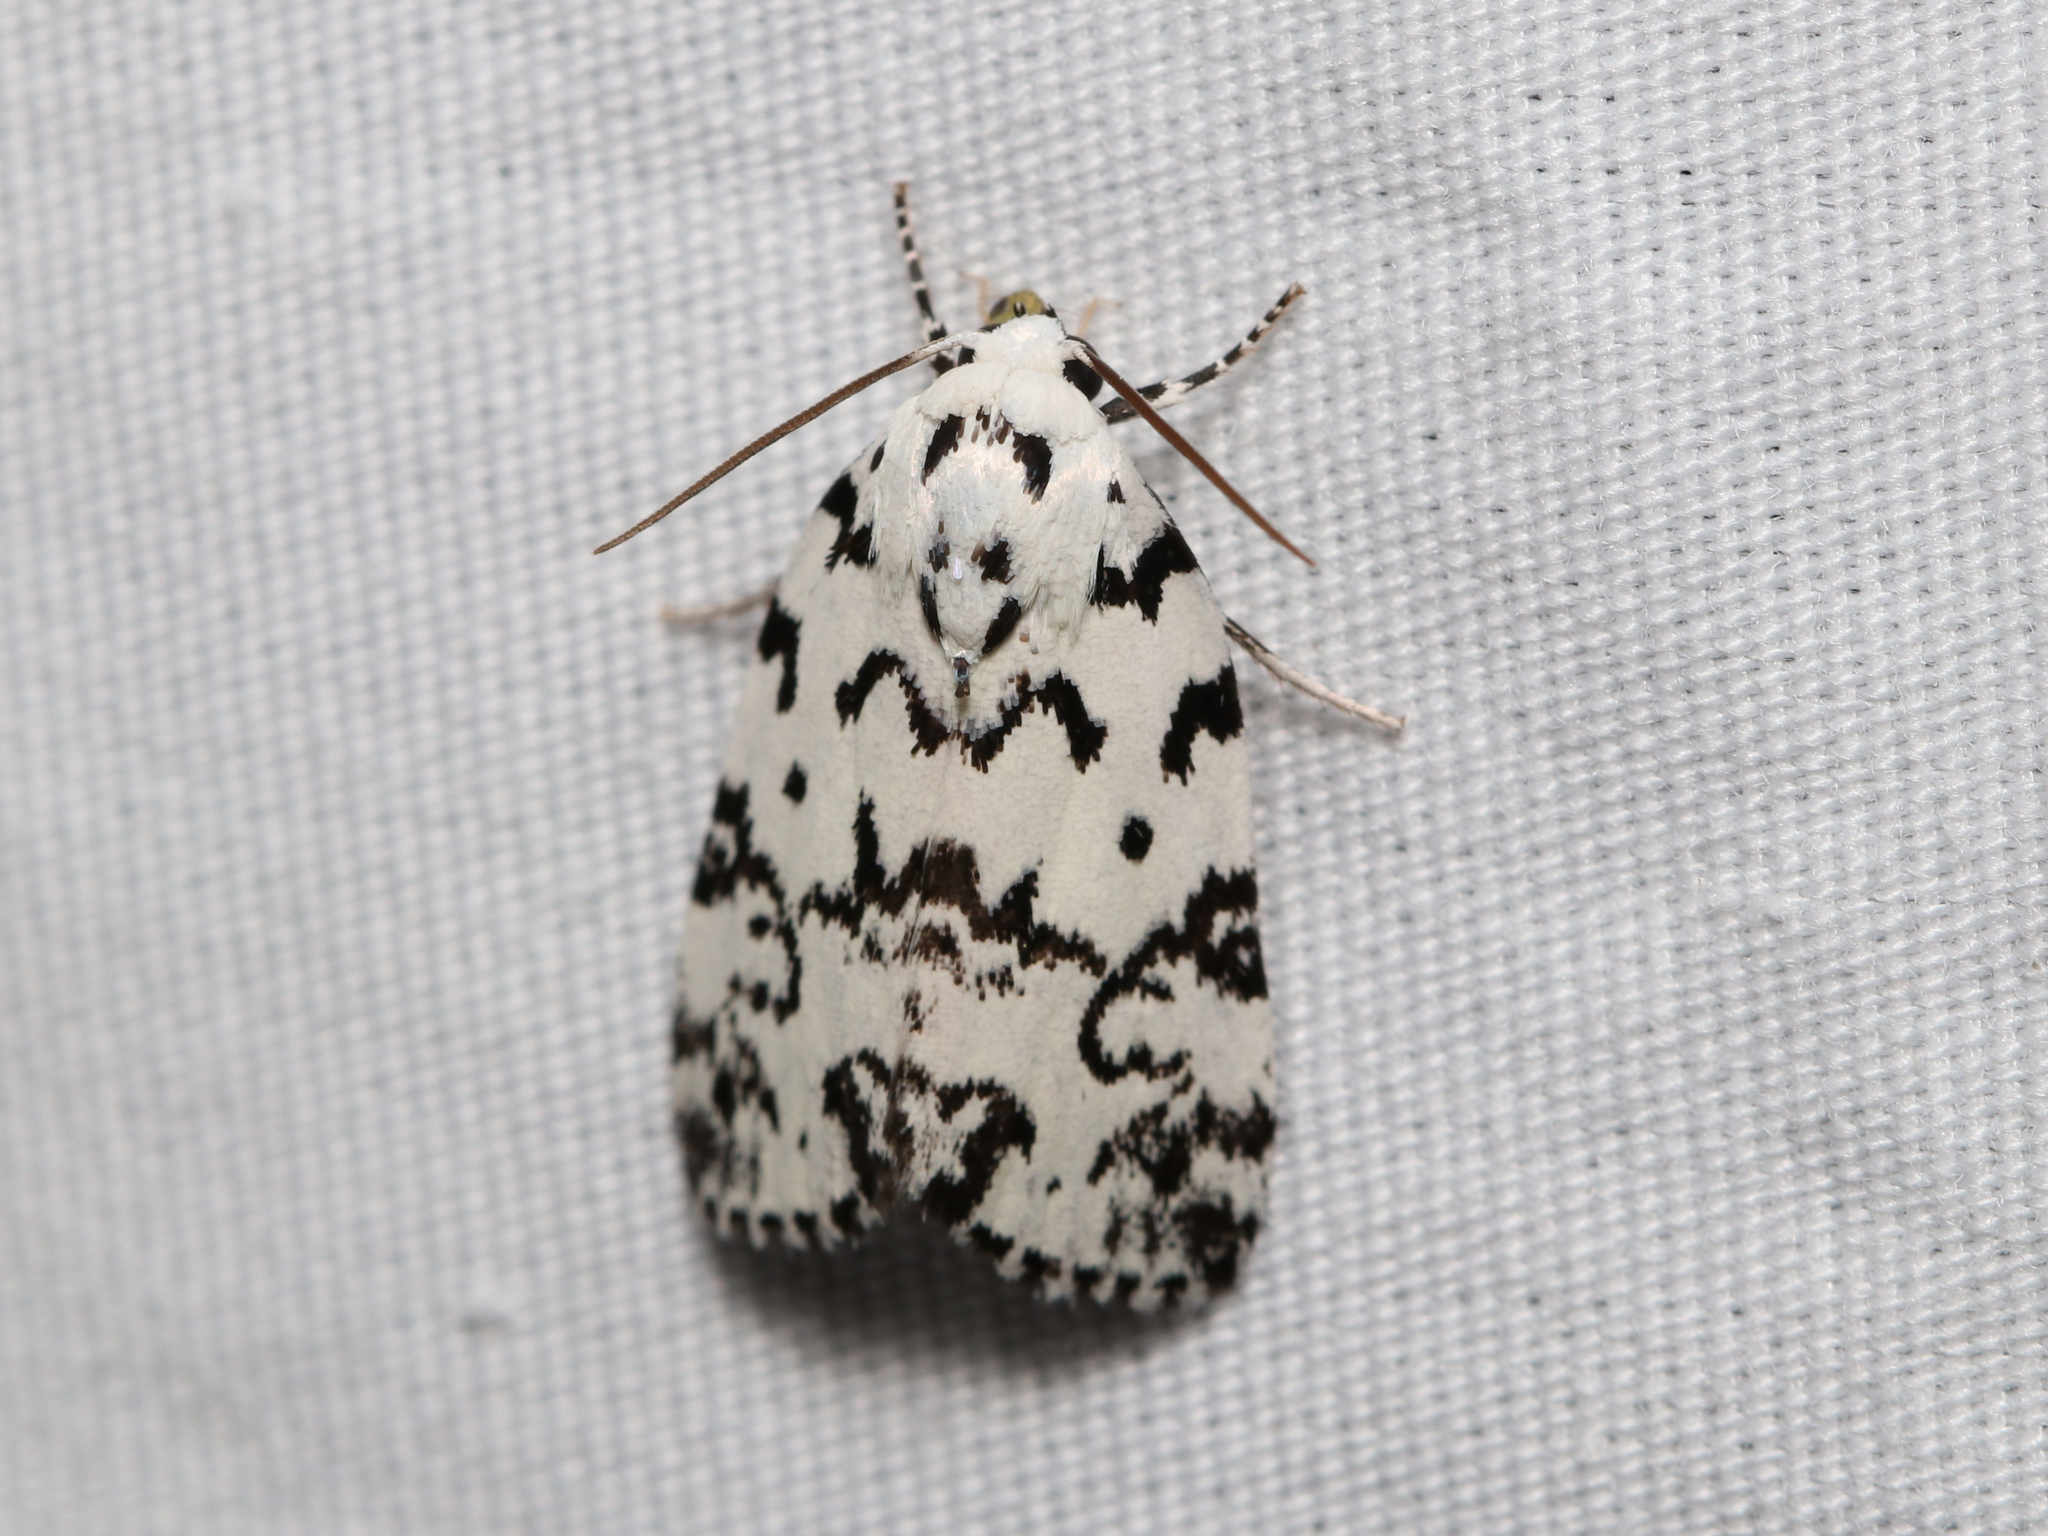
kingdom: Animalia
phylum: Arthropoda
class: Insecta
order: Lepidoptera
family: Noctuidae
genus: Polygrammate
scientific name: Polygrammate hebraeicum
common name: Hebrew moth
